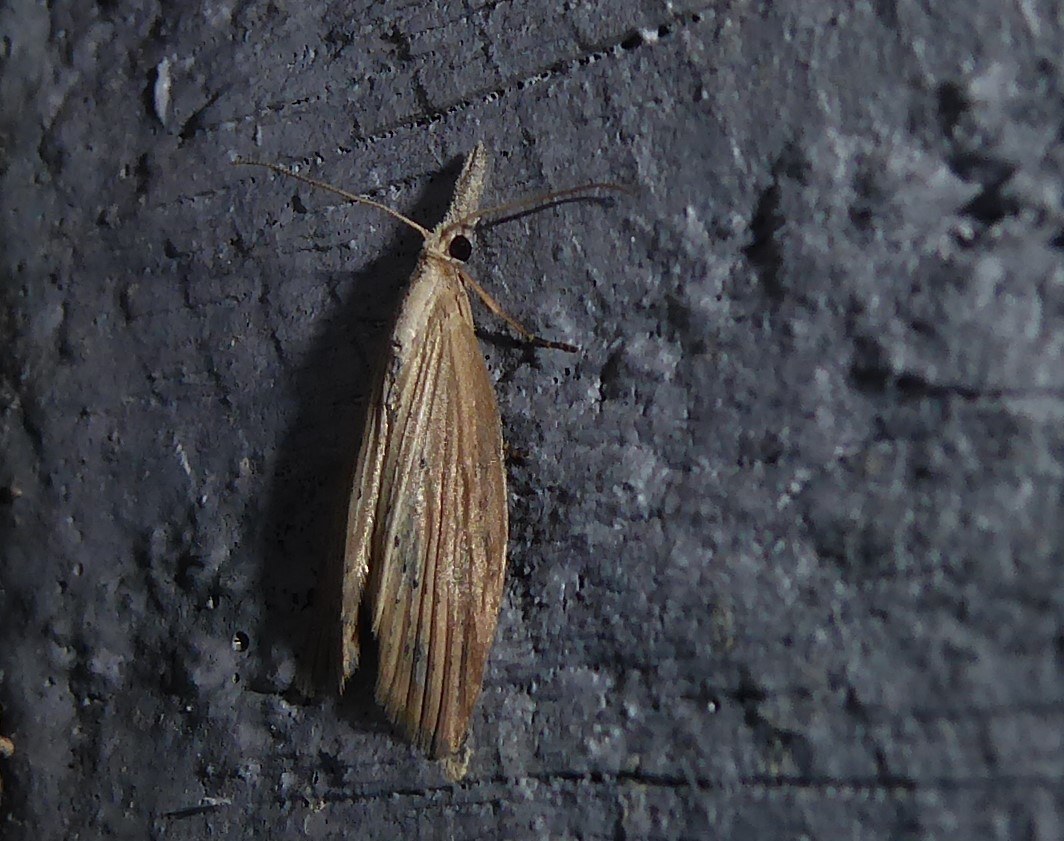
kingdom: Animalia
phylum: Arthropoda
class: Insecta
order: Lepidoptera
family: Geometridae
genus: Microdes
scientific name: Microdes epicryptis
